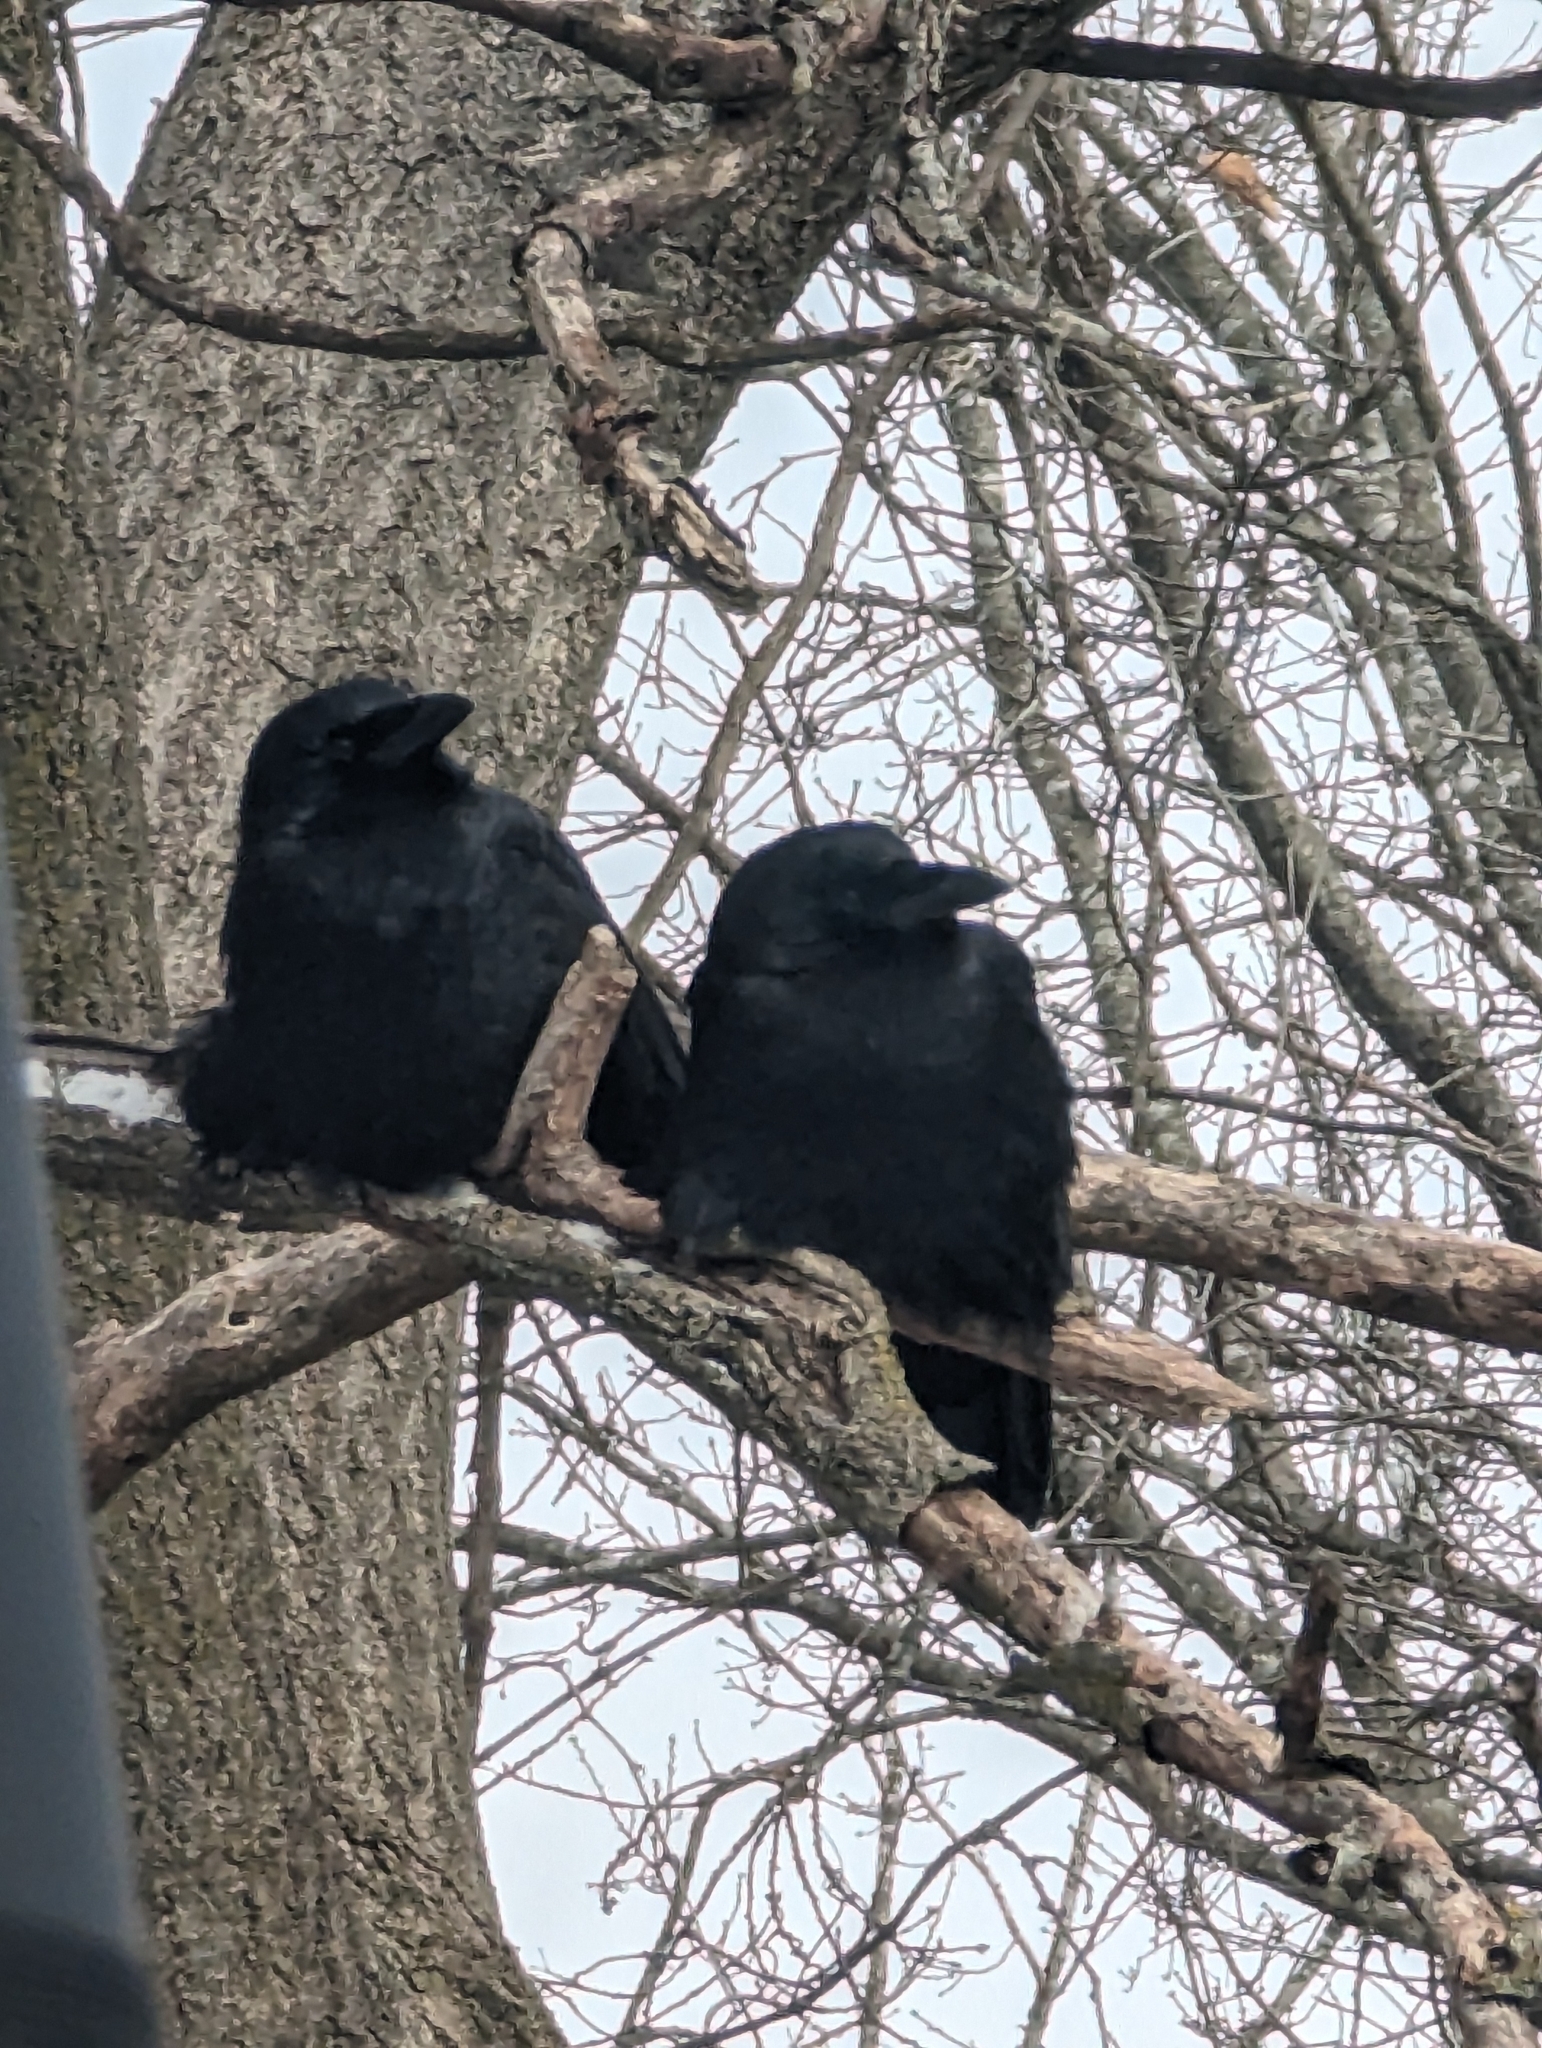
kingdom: Animalia
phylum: Chordata
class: Aves
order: Passeriformes
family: Corvidae
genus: Corvus
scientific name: Corvus brachyrhynchos
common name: American crow
